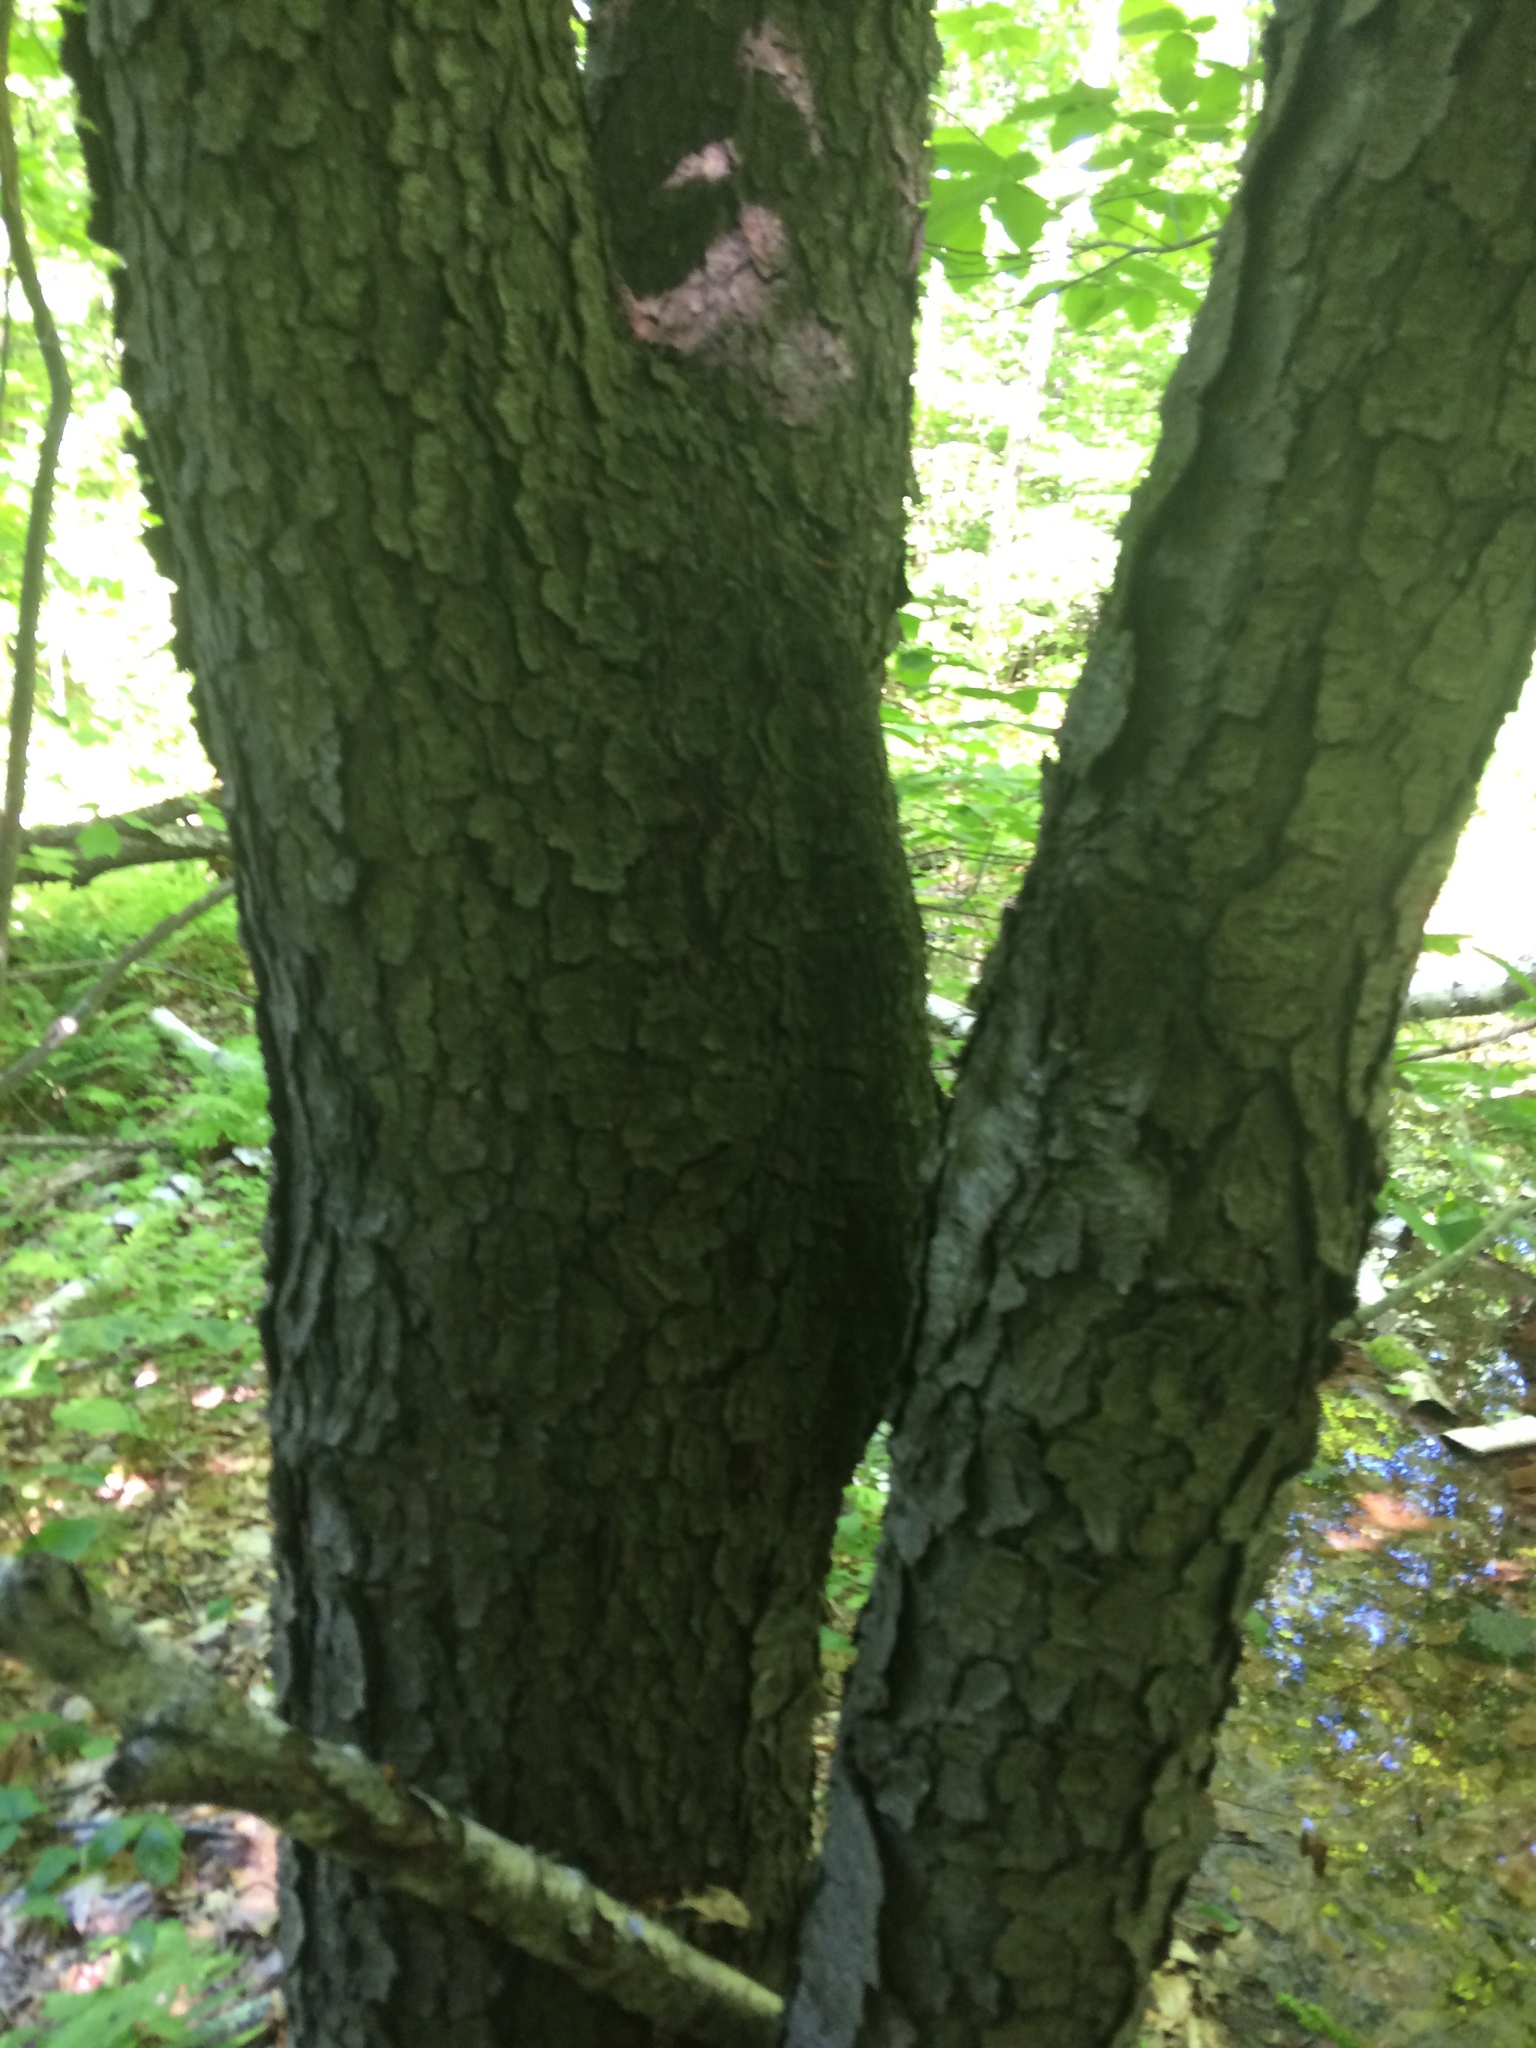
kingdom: Plantae
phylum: Tracheophyta
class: Magnoliopsida
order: Rosales
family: Rosaceae
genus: Prunus
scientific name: Prunus serotina
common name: Black cherry
